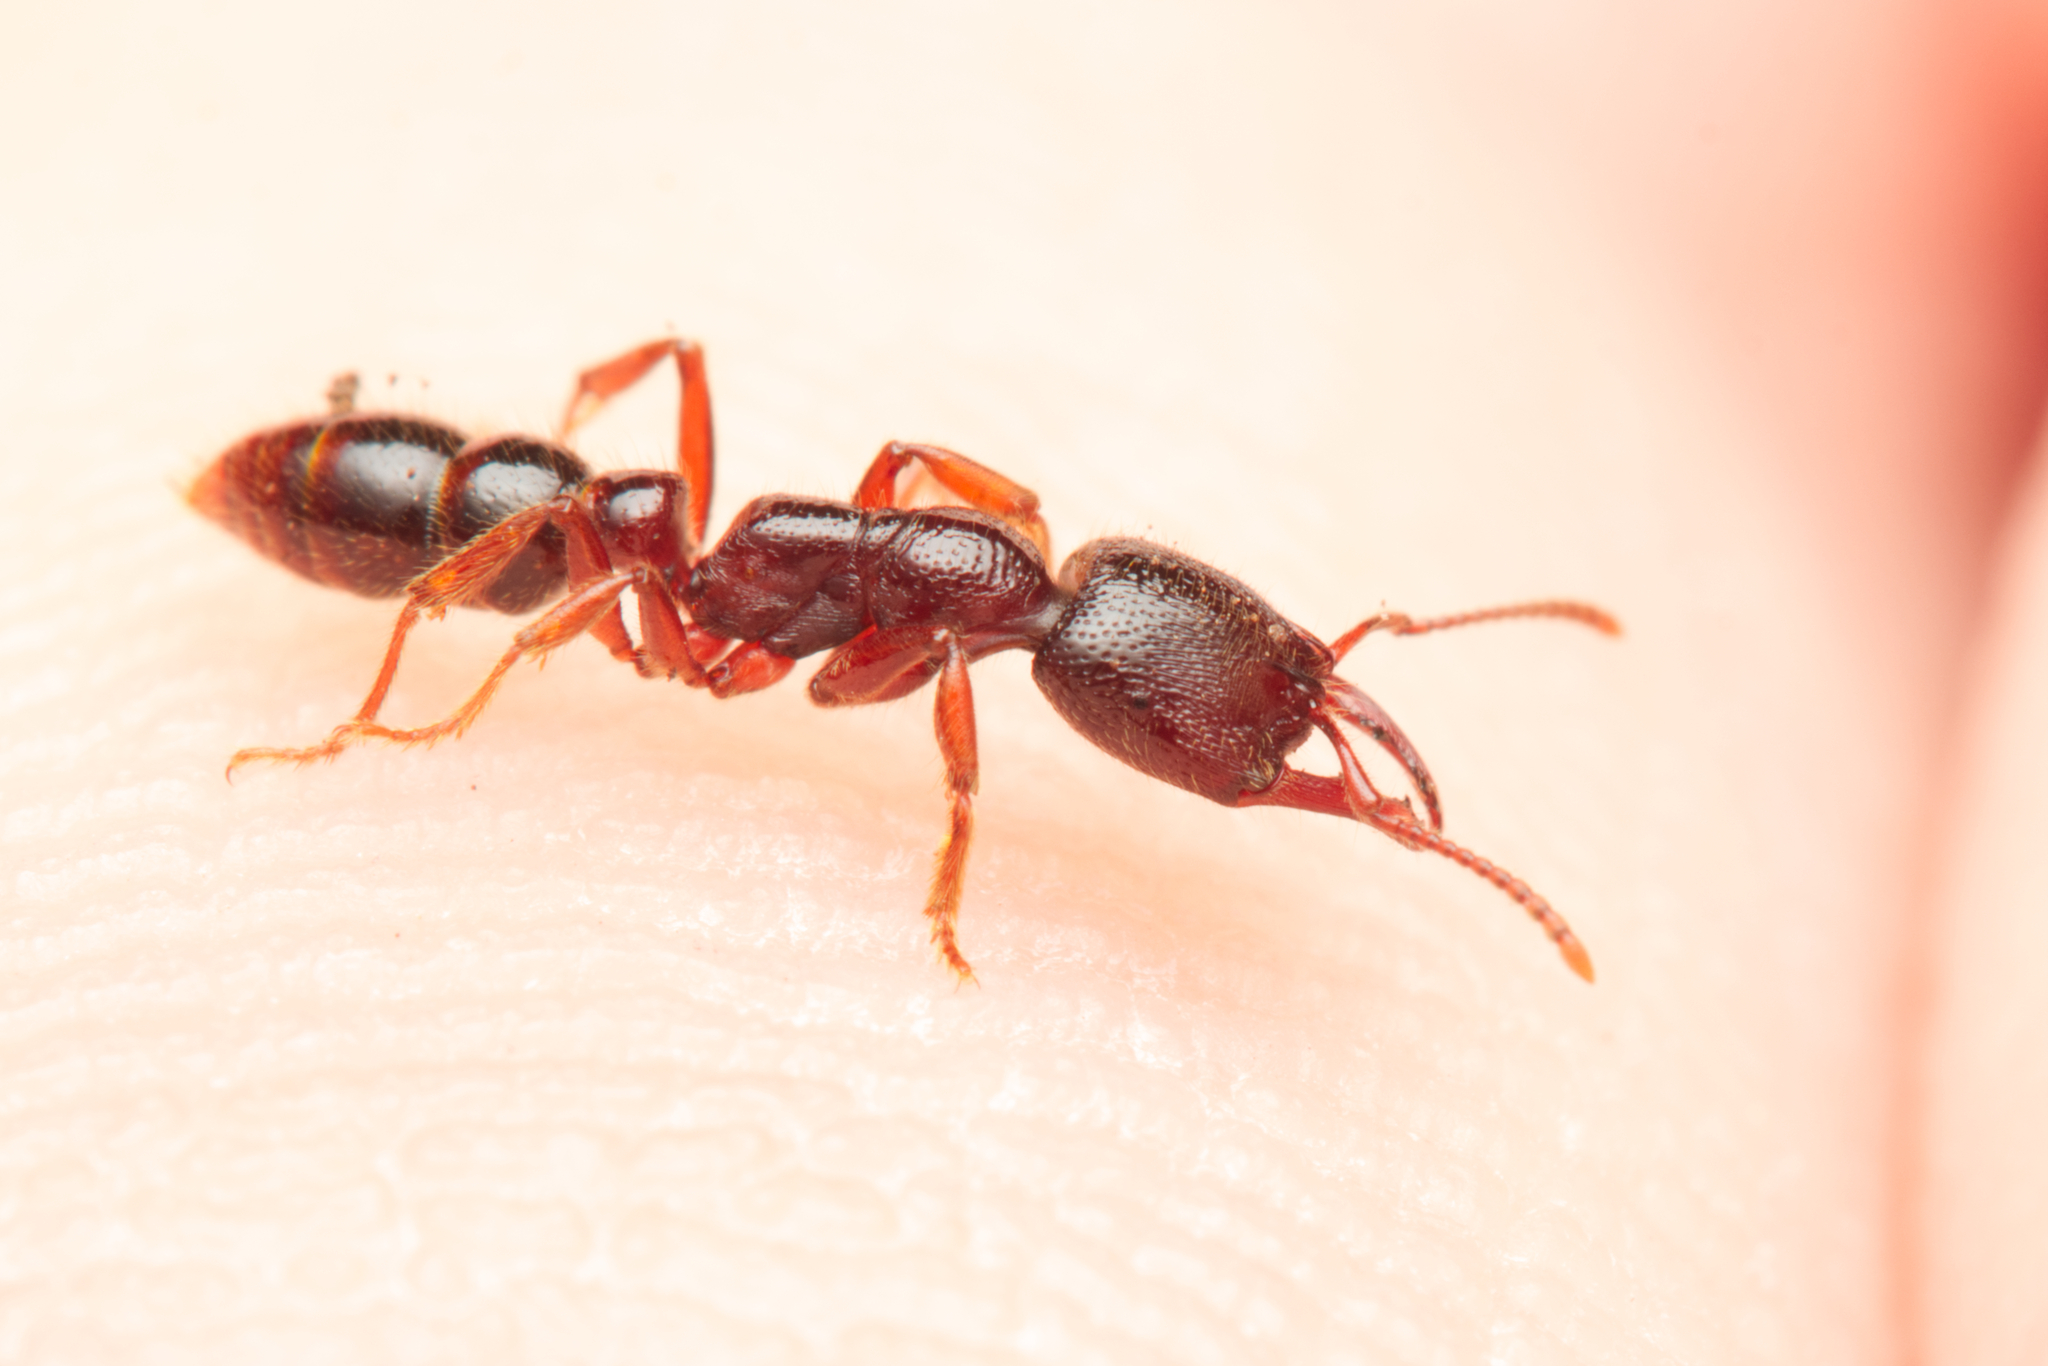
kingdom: Animalia
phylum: Arthropoda
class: Insecta
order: Hymenoptera
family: Formicidae
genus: Amblyopone
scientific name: Amblyopone australis
